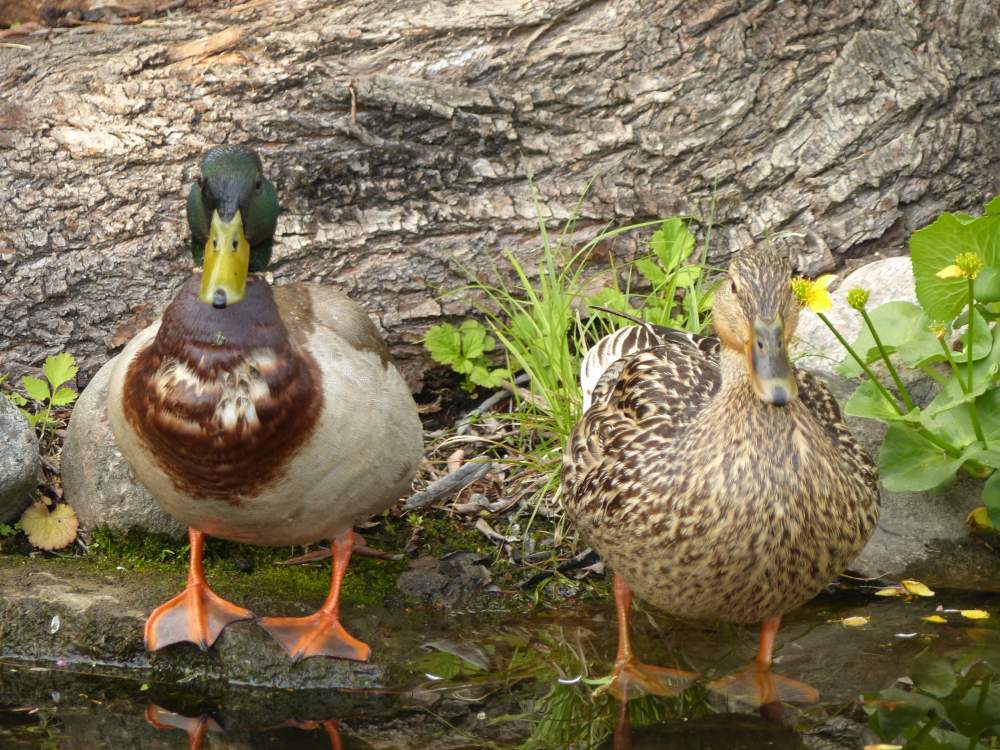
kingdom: Animalia
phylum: Chordata
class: Aves
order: Anseriformes
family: Anatidae
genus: Anas
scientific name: Anas platyrhynchos
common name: Mallard
